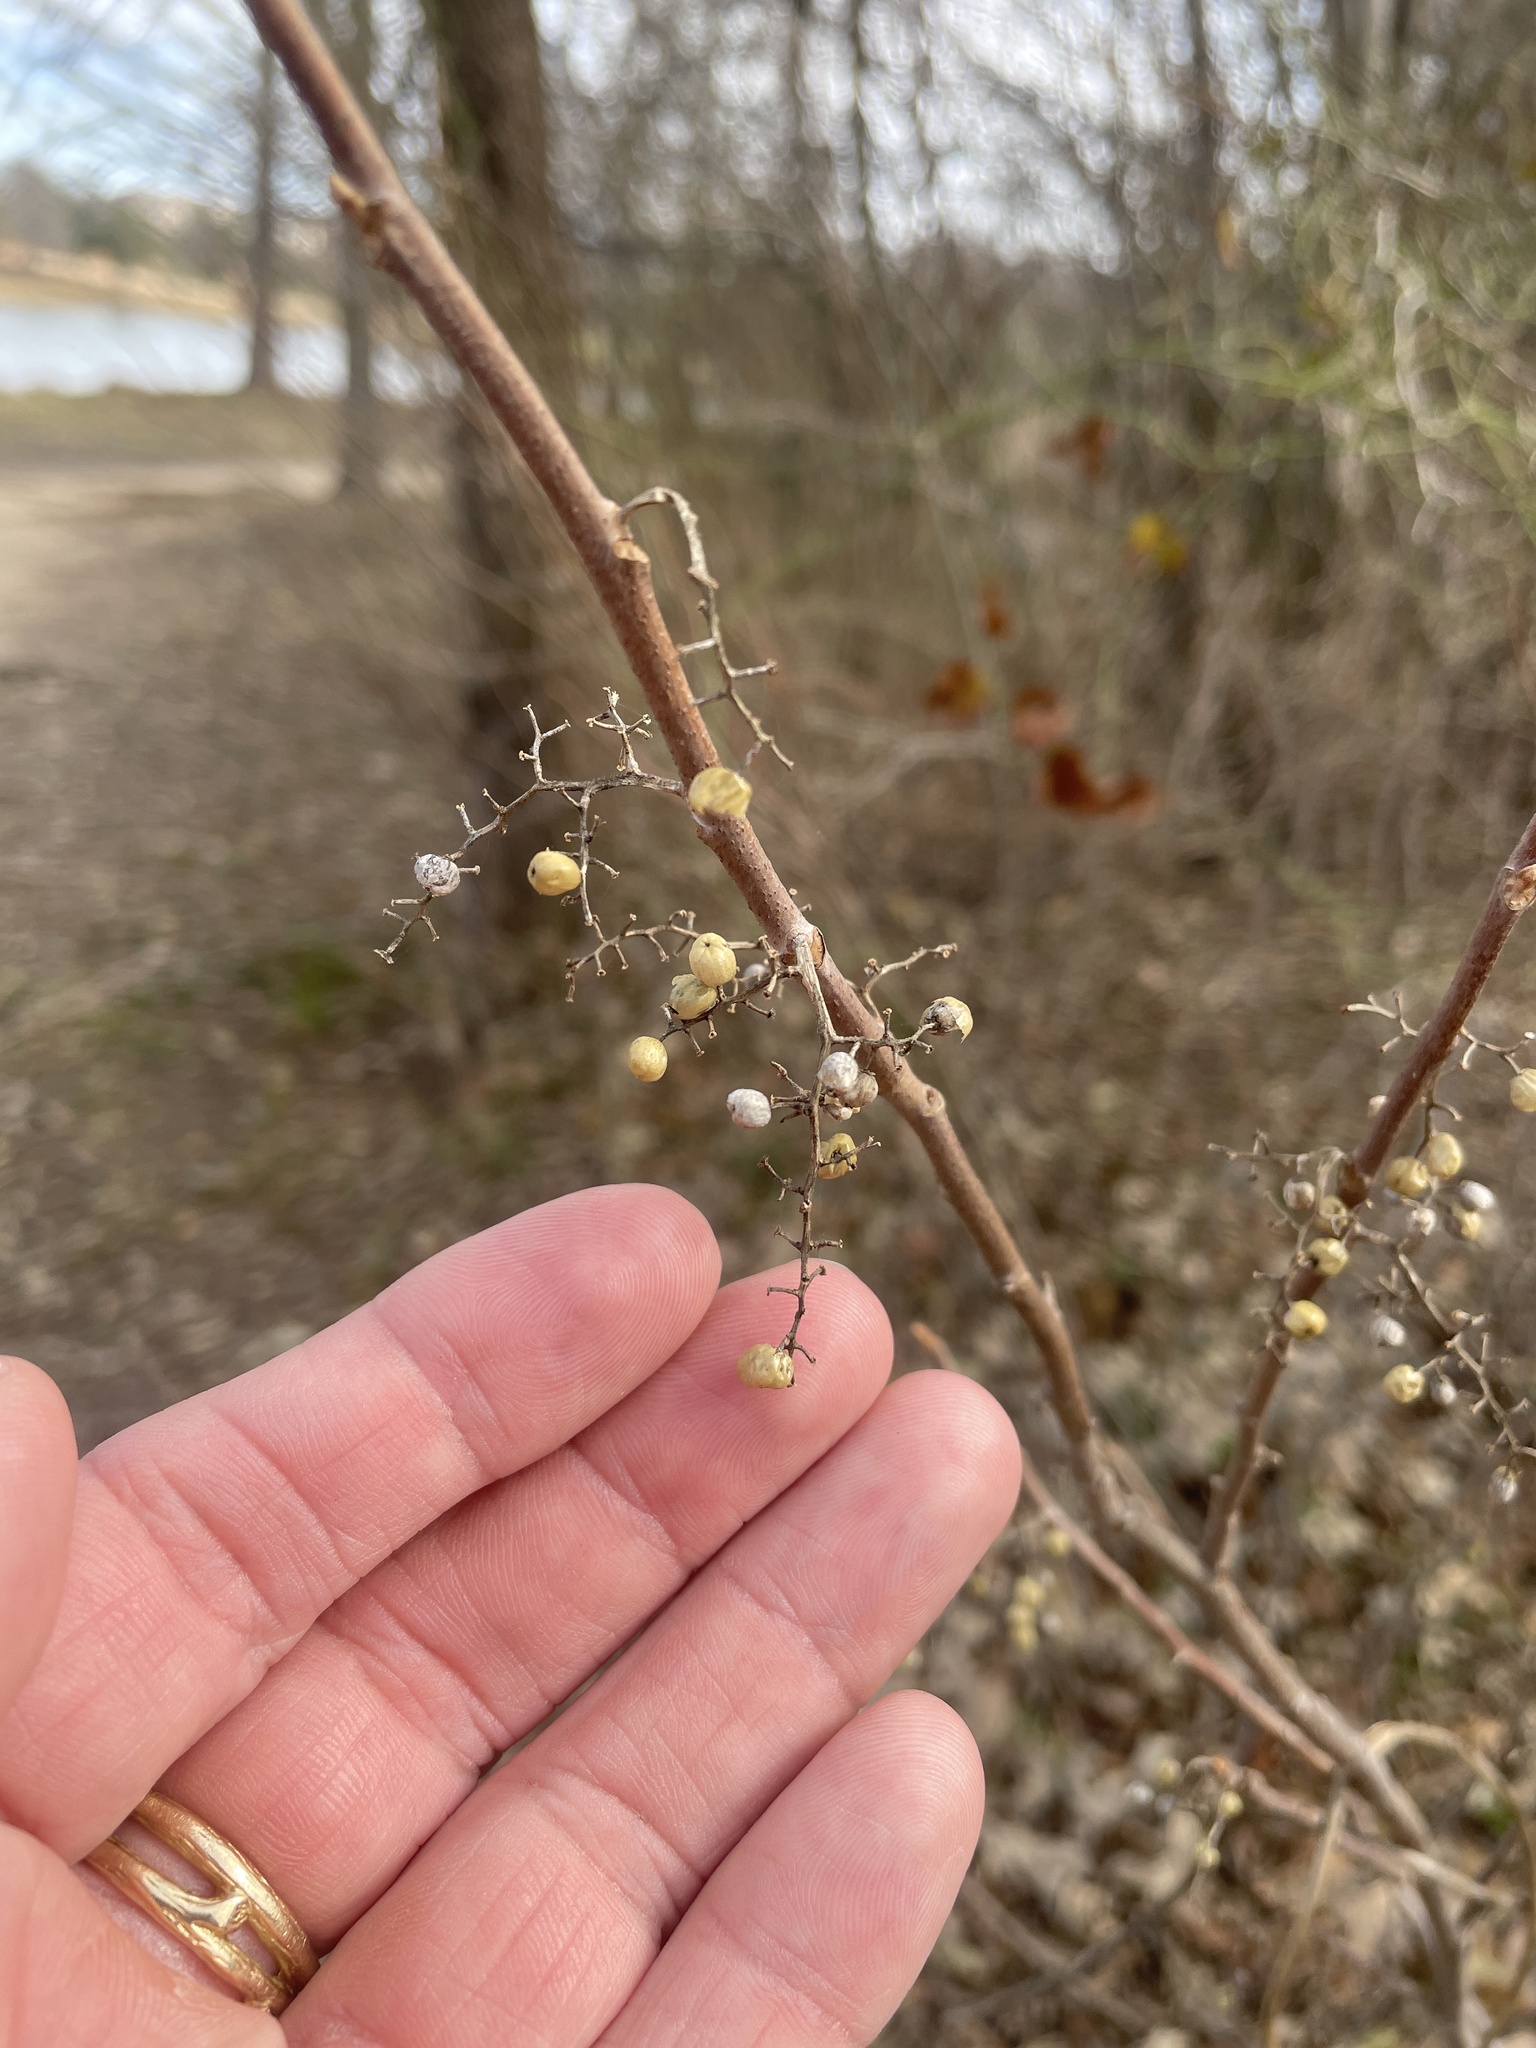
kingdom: Plantae
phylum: Tracheophyta
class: Magnoliopsida
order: Sapindales
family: Anacardiaceae
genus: Toxicodendron
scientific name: Toxicodendron radicans
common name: Poison ivy
